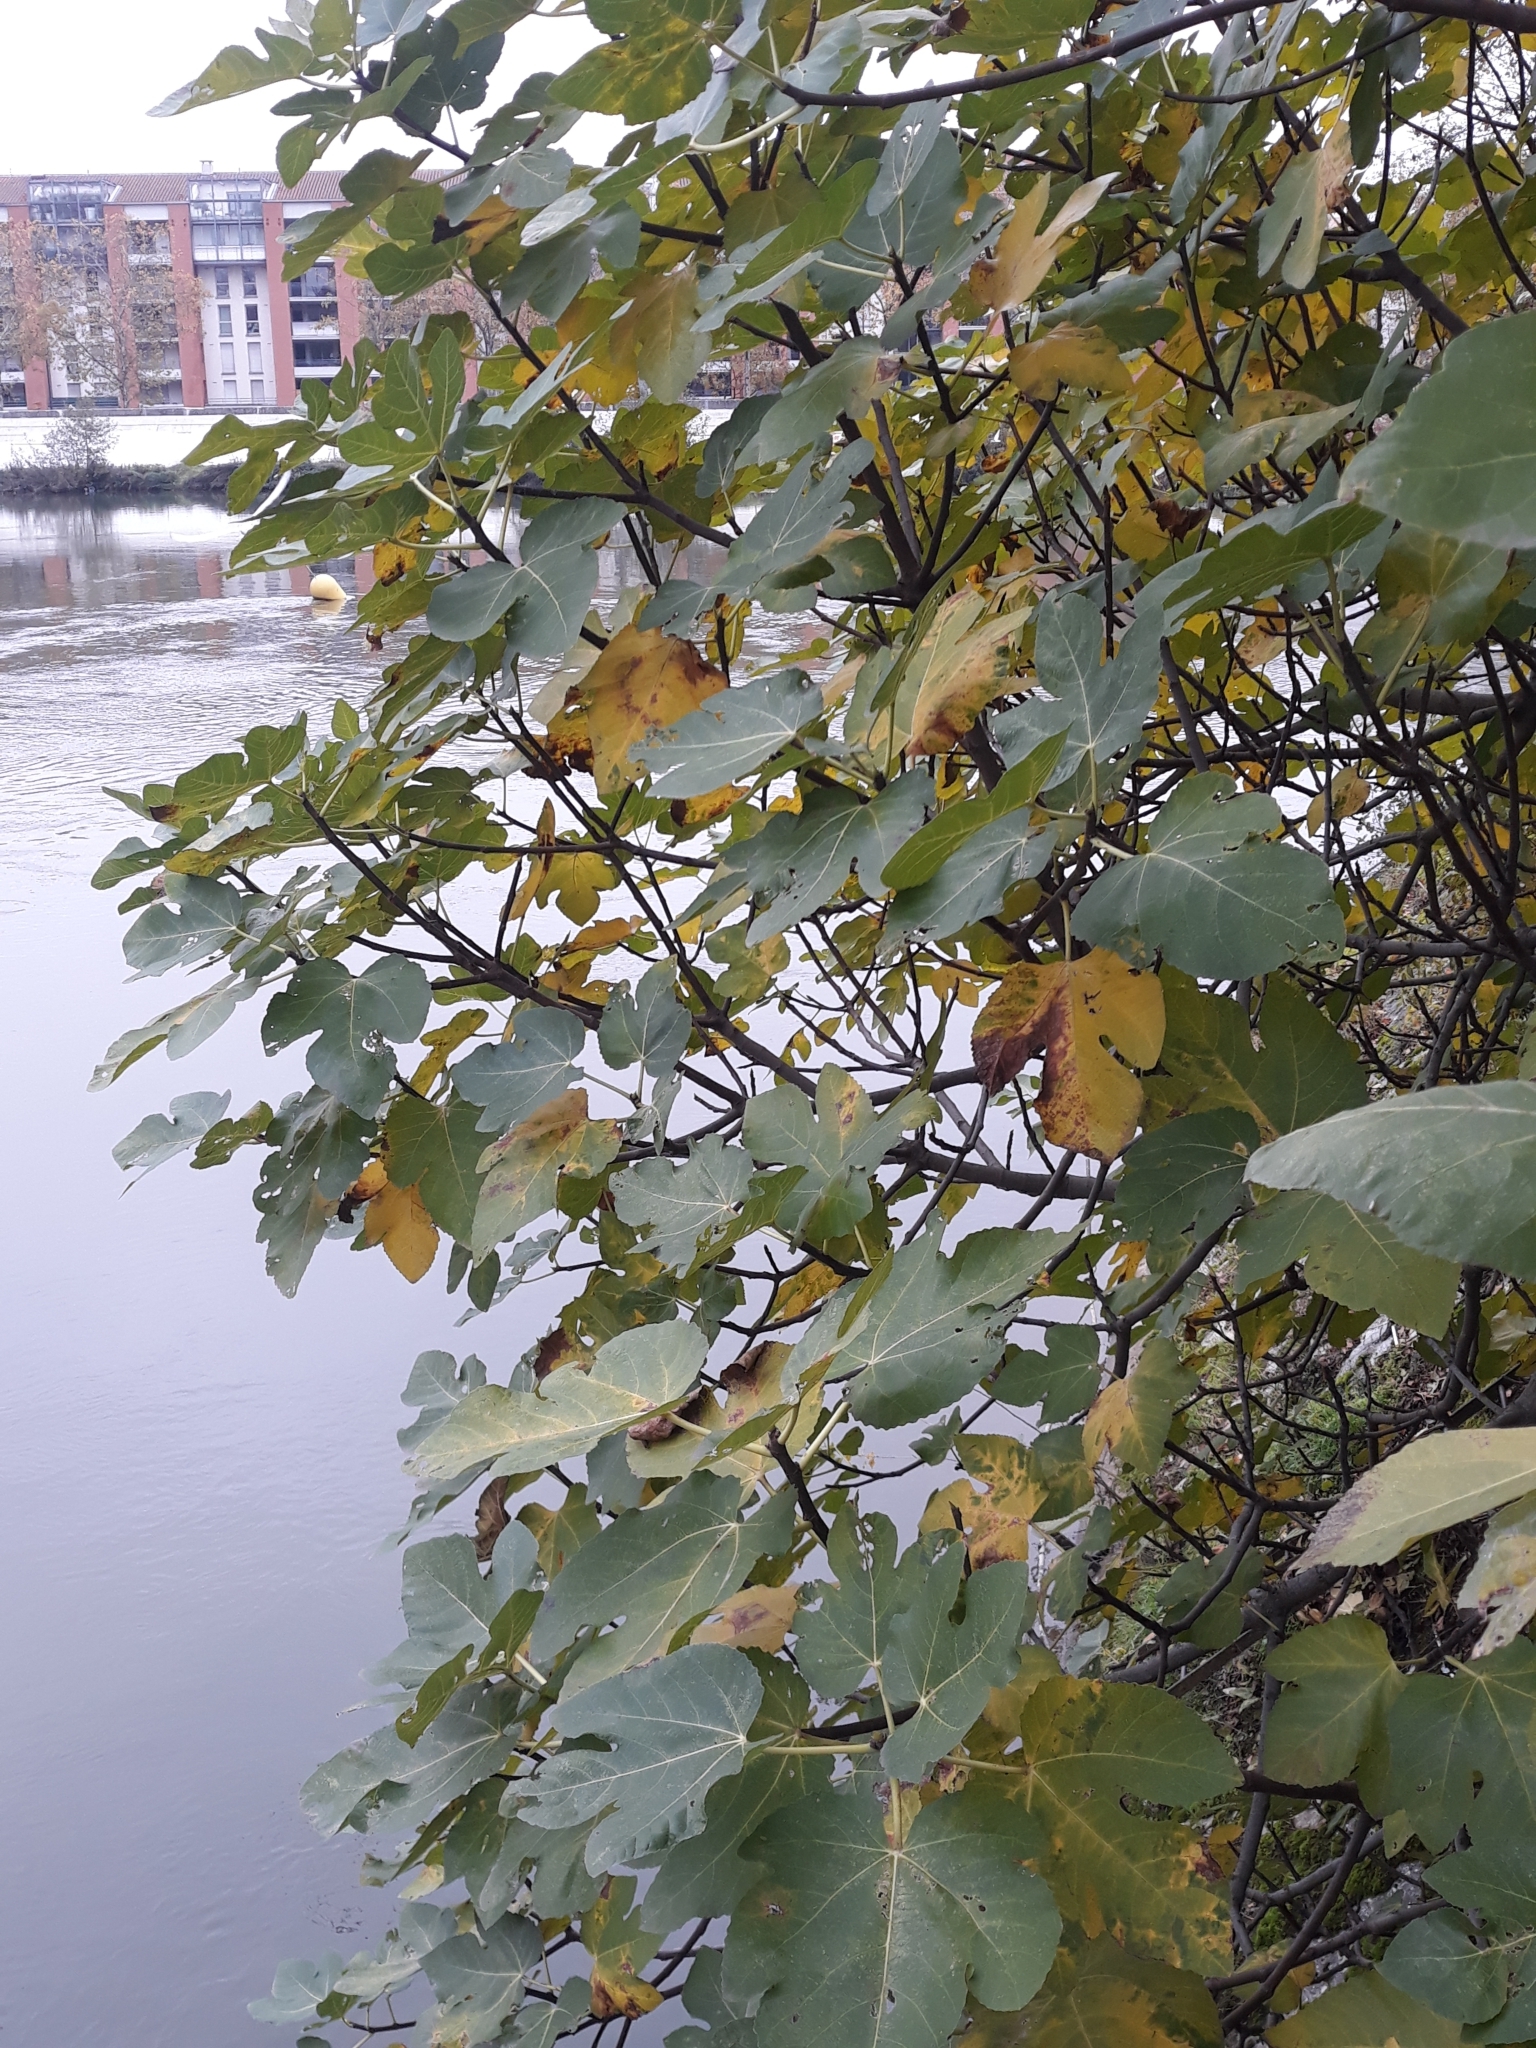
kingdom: Plantae
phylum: Tracheophyta
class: Magnoliopsida
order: Rosales
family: Moraceae
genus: Ficus
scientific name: Ficus carica
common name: Fig
